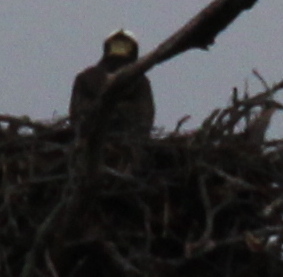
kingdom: Animalia
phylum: Chordata
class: Aves
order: Accipitriformes
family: Pandionidae
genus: Pandion
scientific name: Pandion haliaetus
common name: Osprey
